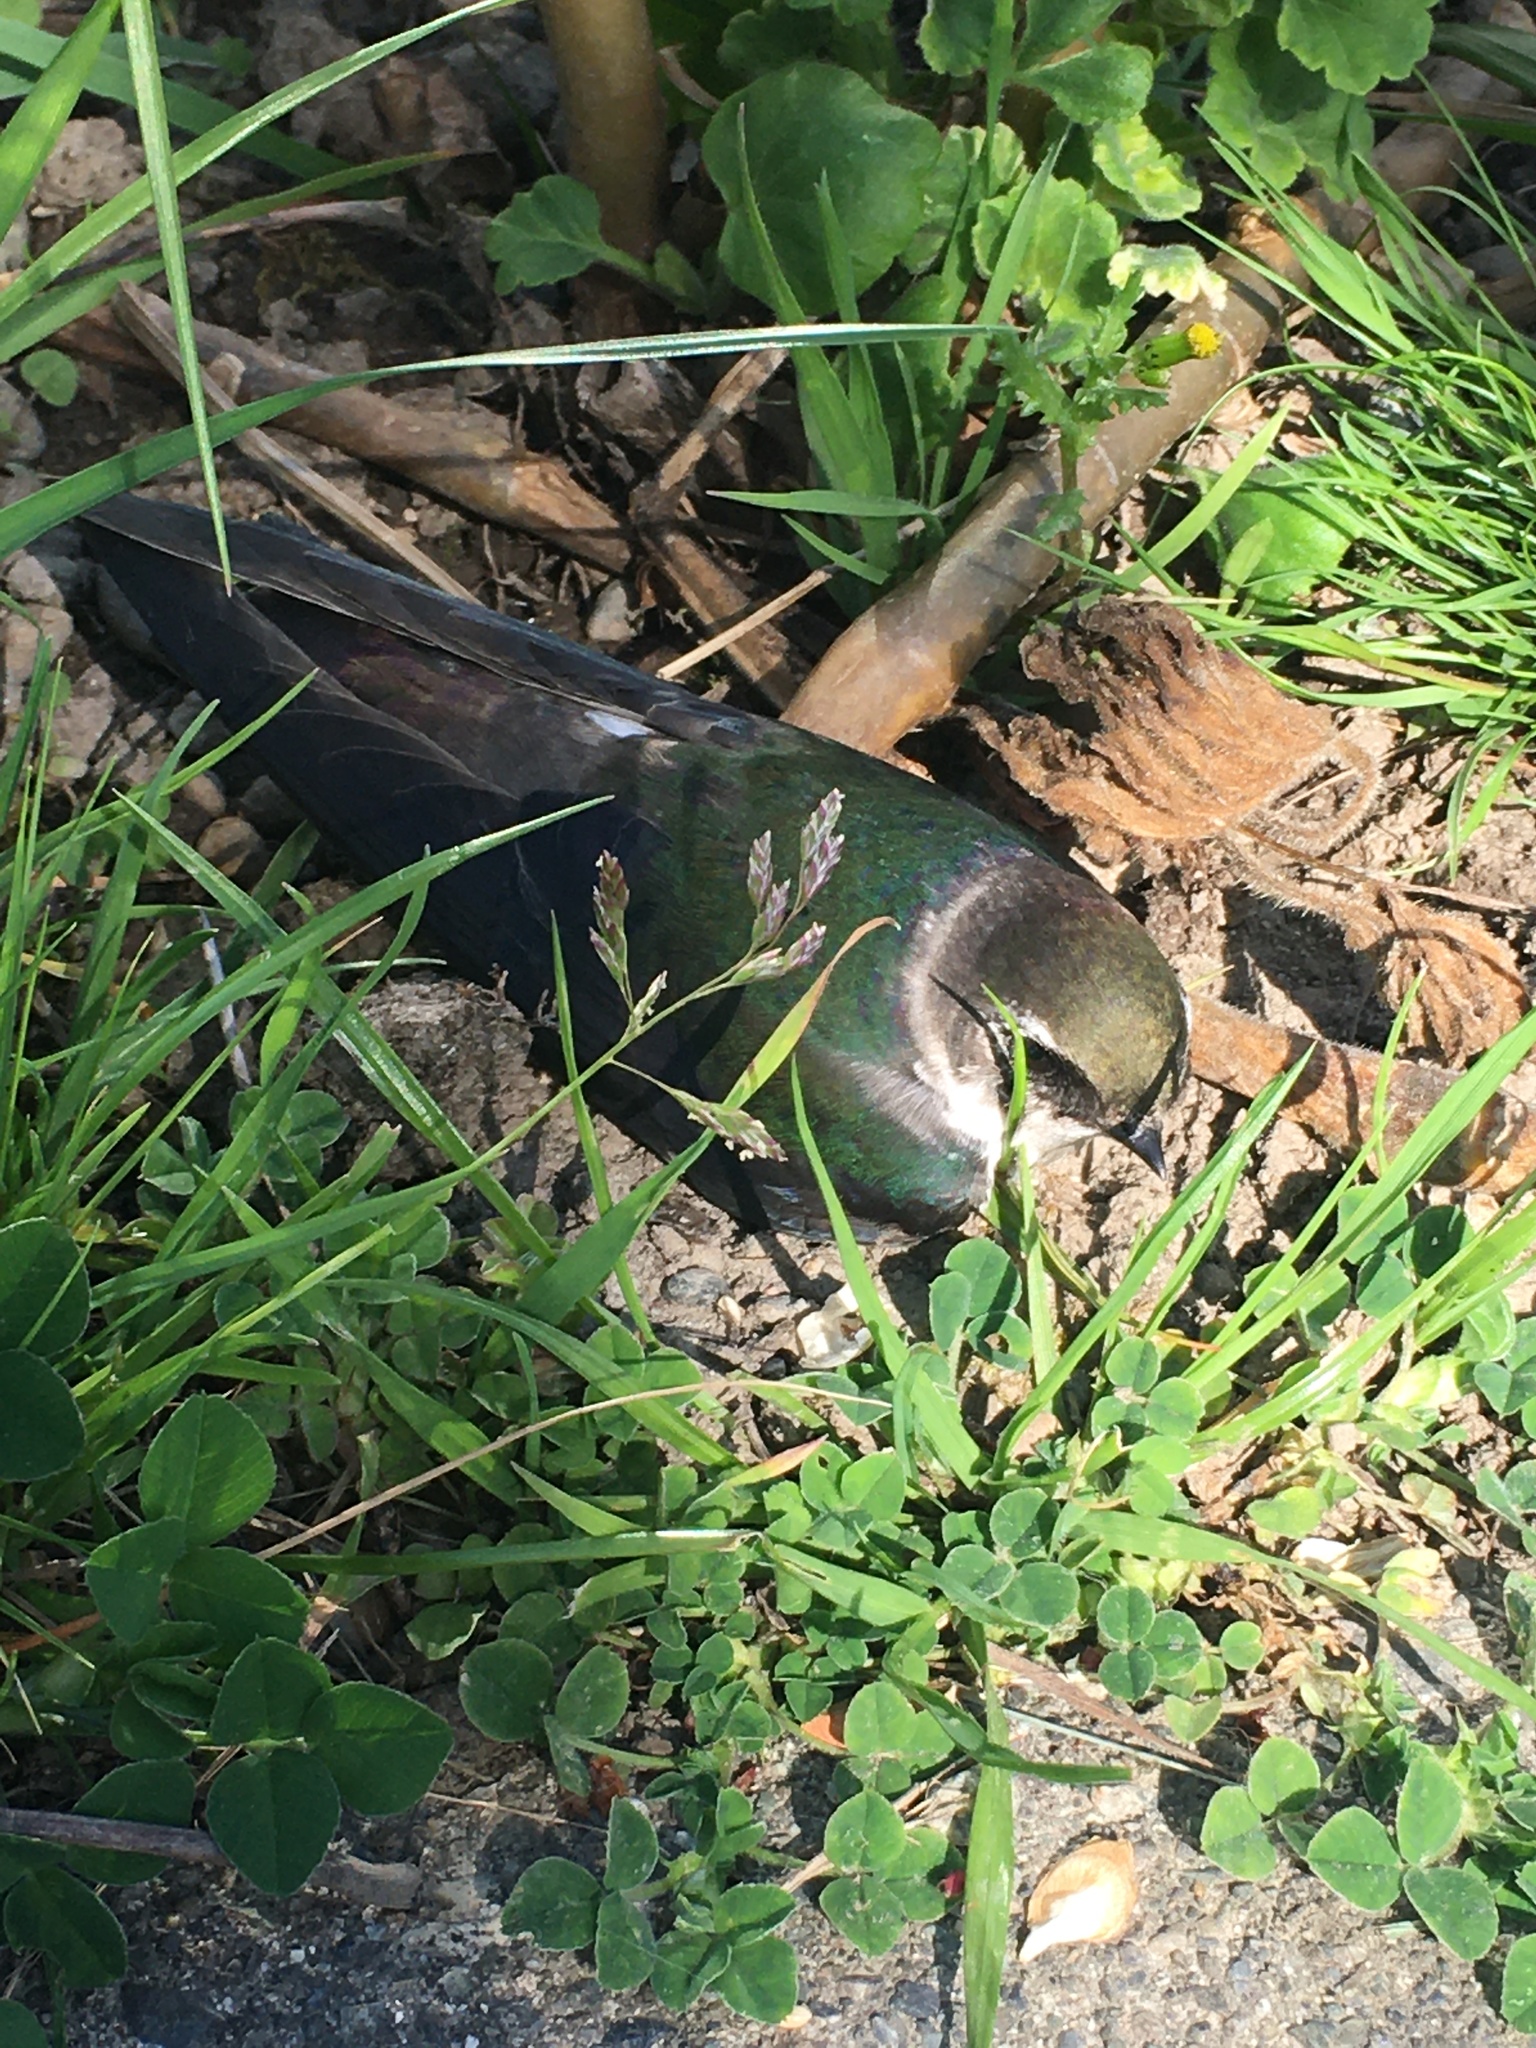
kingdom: Animalia
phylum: Chordata
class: Aves
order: Passeriformes
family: Hirundinidae
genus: Tachycineta
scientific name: Tachycineta thalassina
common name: Violet-green swallow
